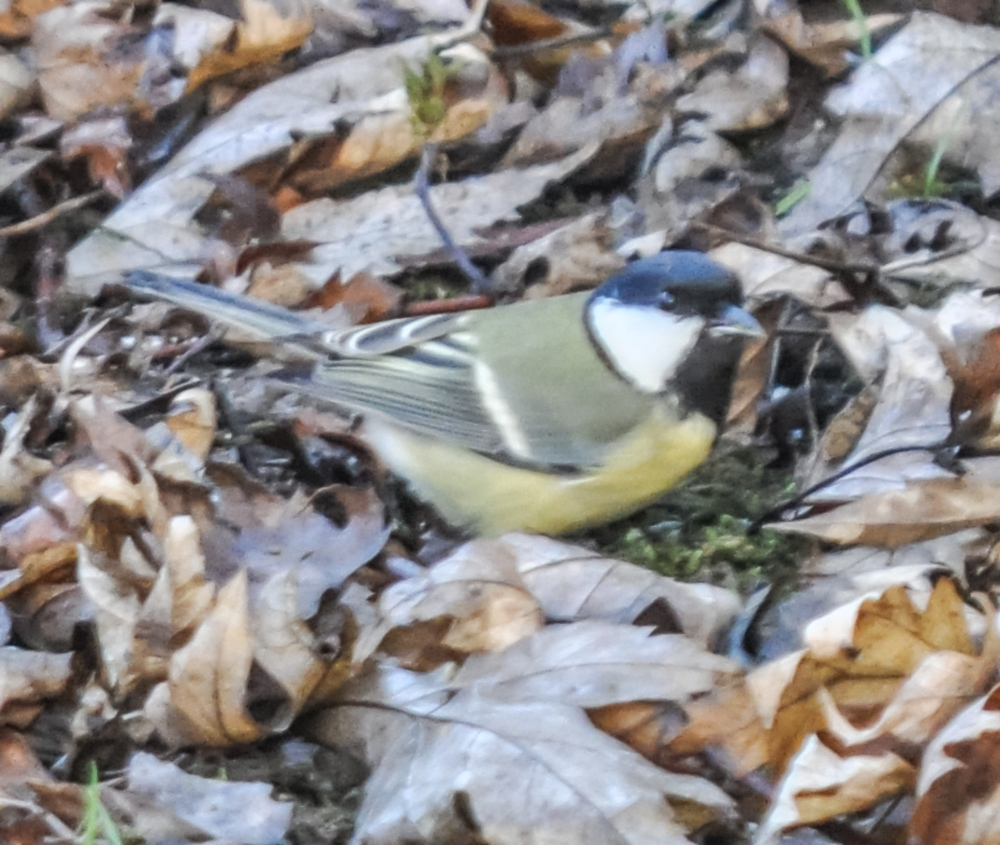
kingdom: Animalia
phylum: Chordata
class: Aves
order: Passeriformes
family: Paridae
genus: Parus
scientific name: Parus major
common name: Great tit
